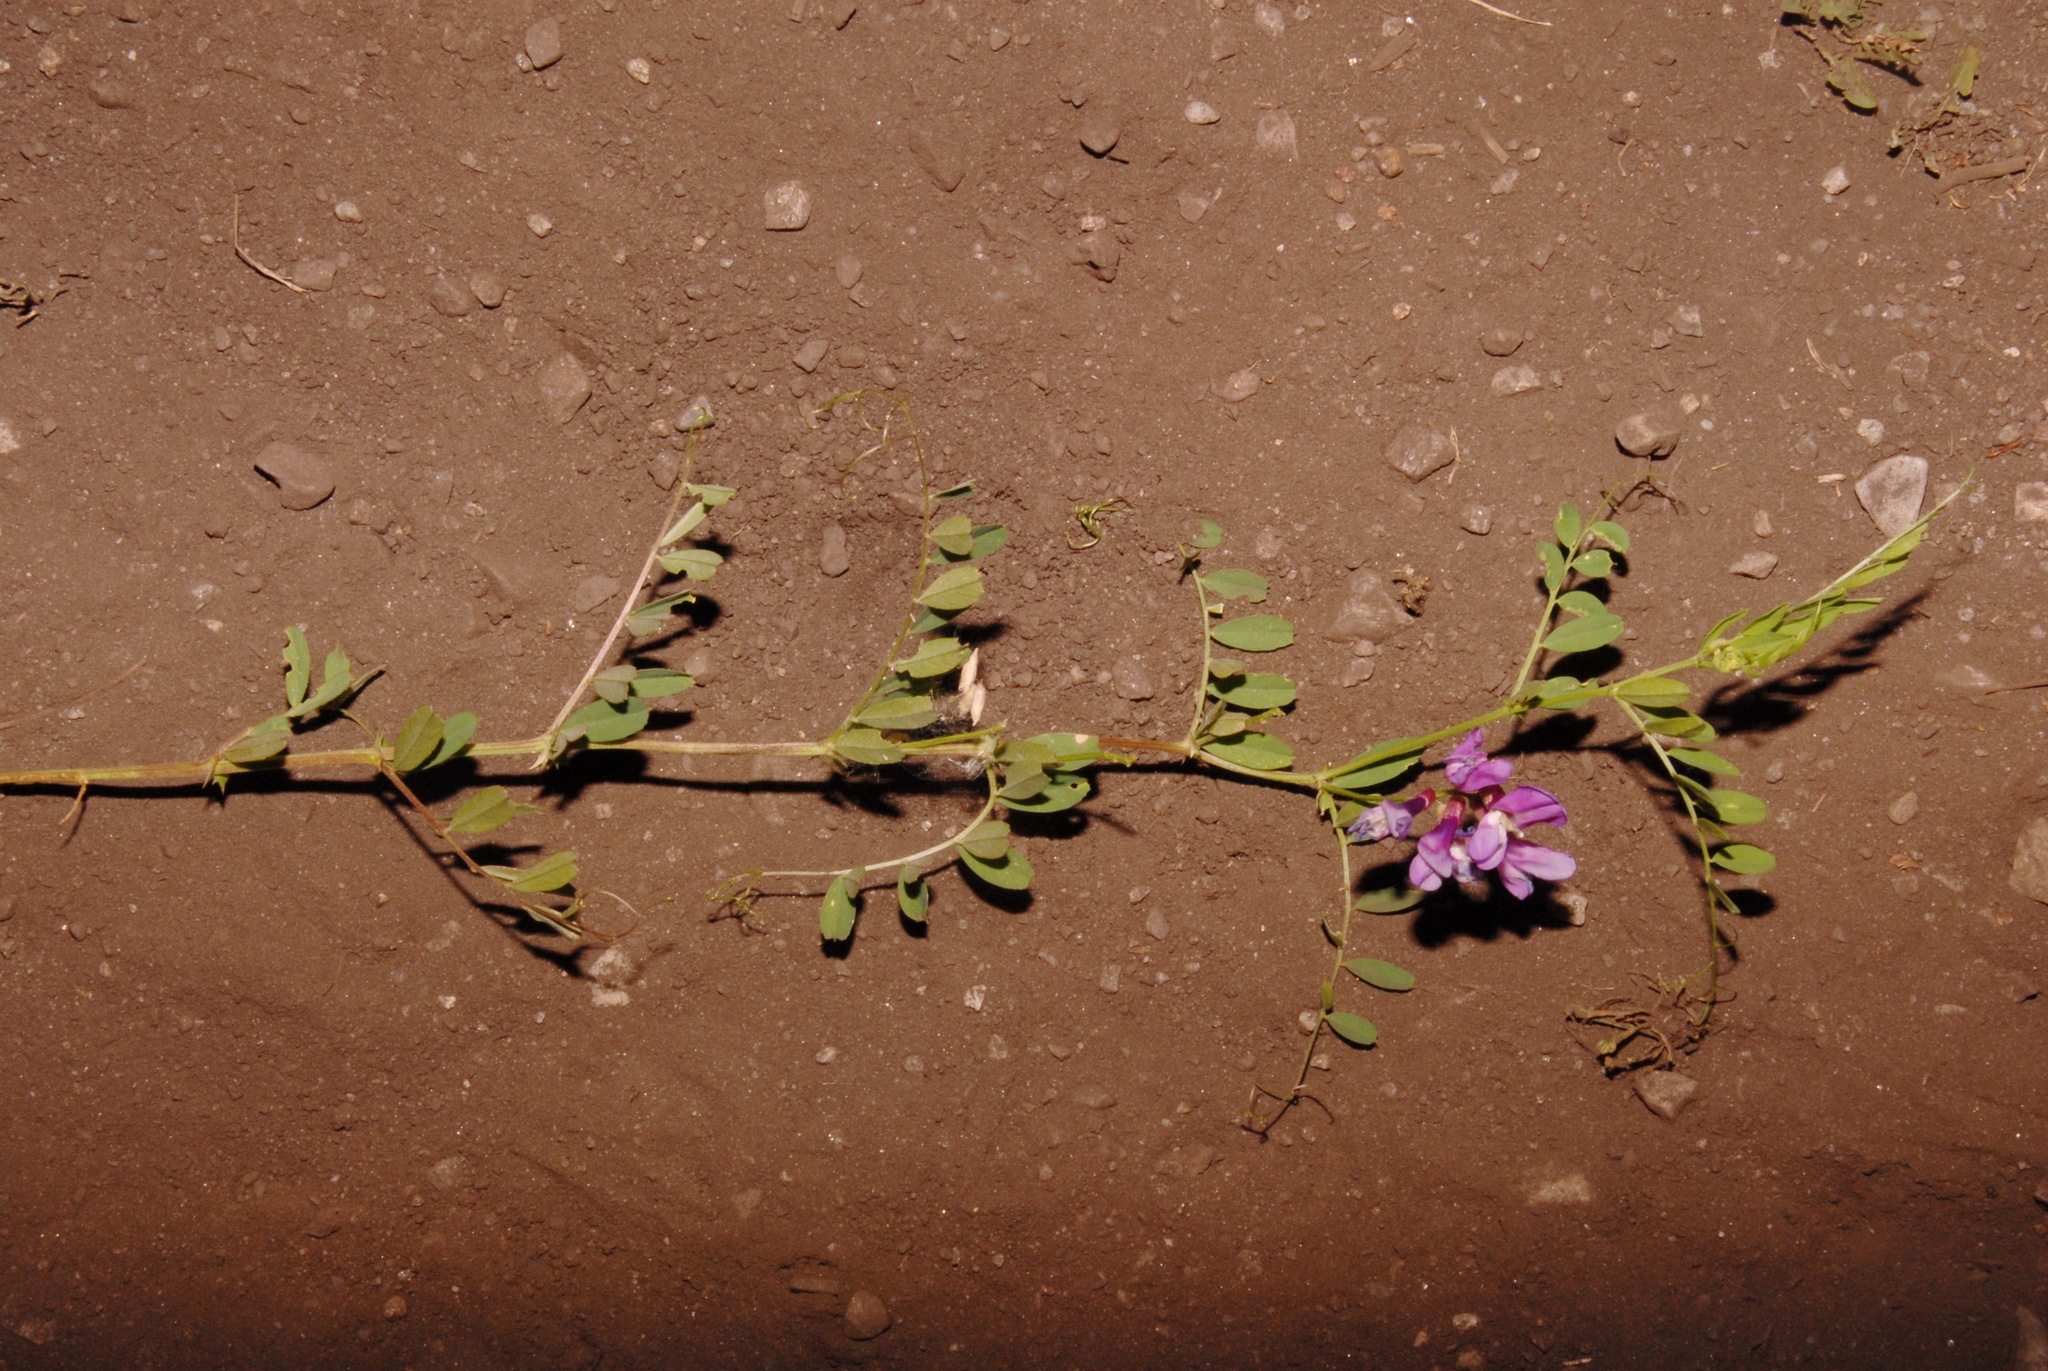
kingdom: Plantae
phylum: Tracheophyta
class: Magnoliopsida
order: Fabales
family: Fabaceae
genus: Vicia
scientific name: Vicia americana
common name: American vetch
